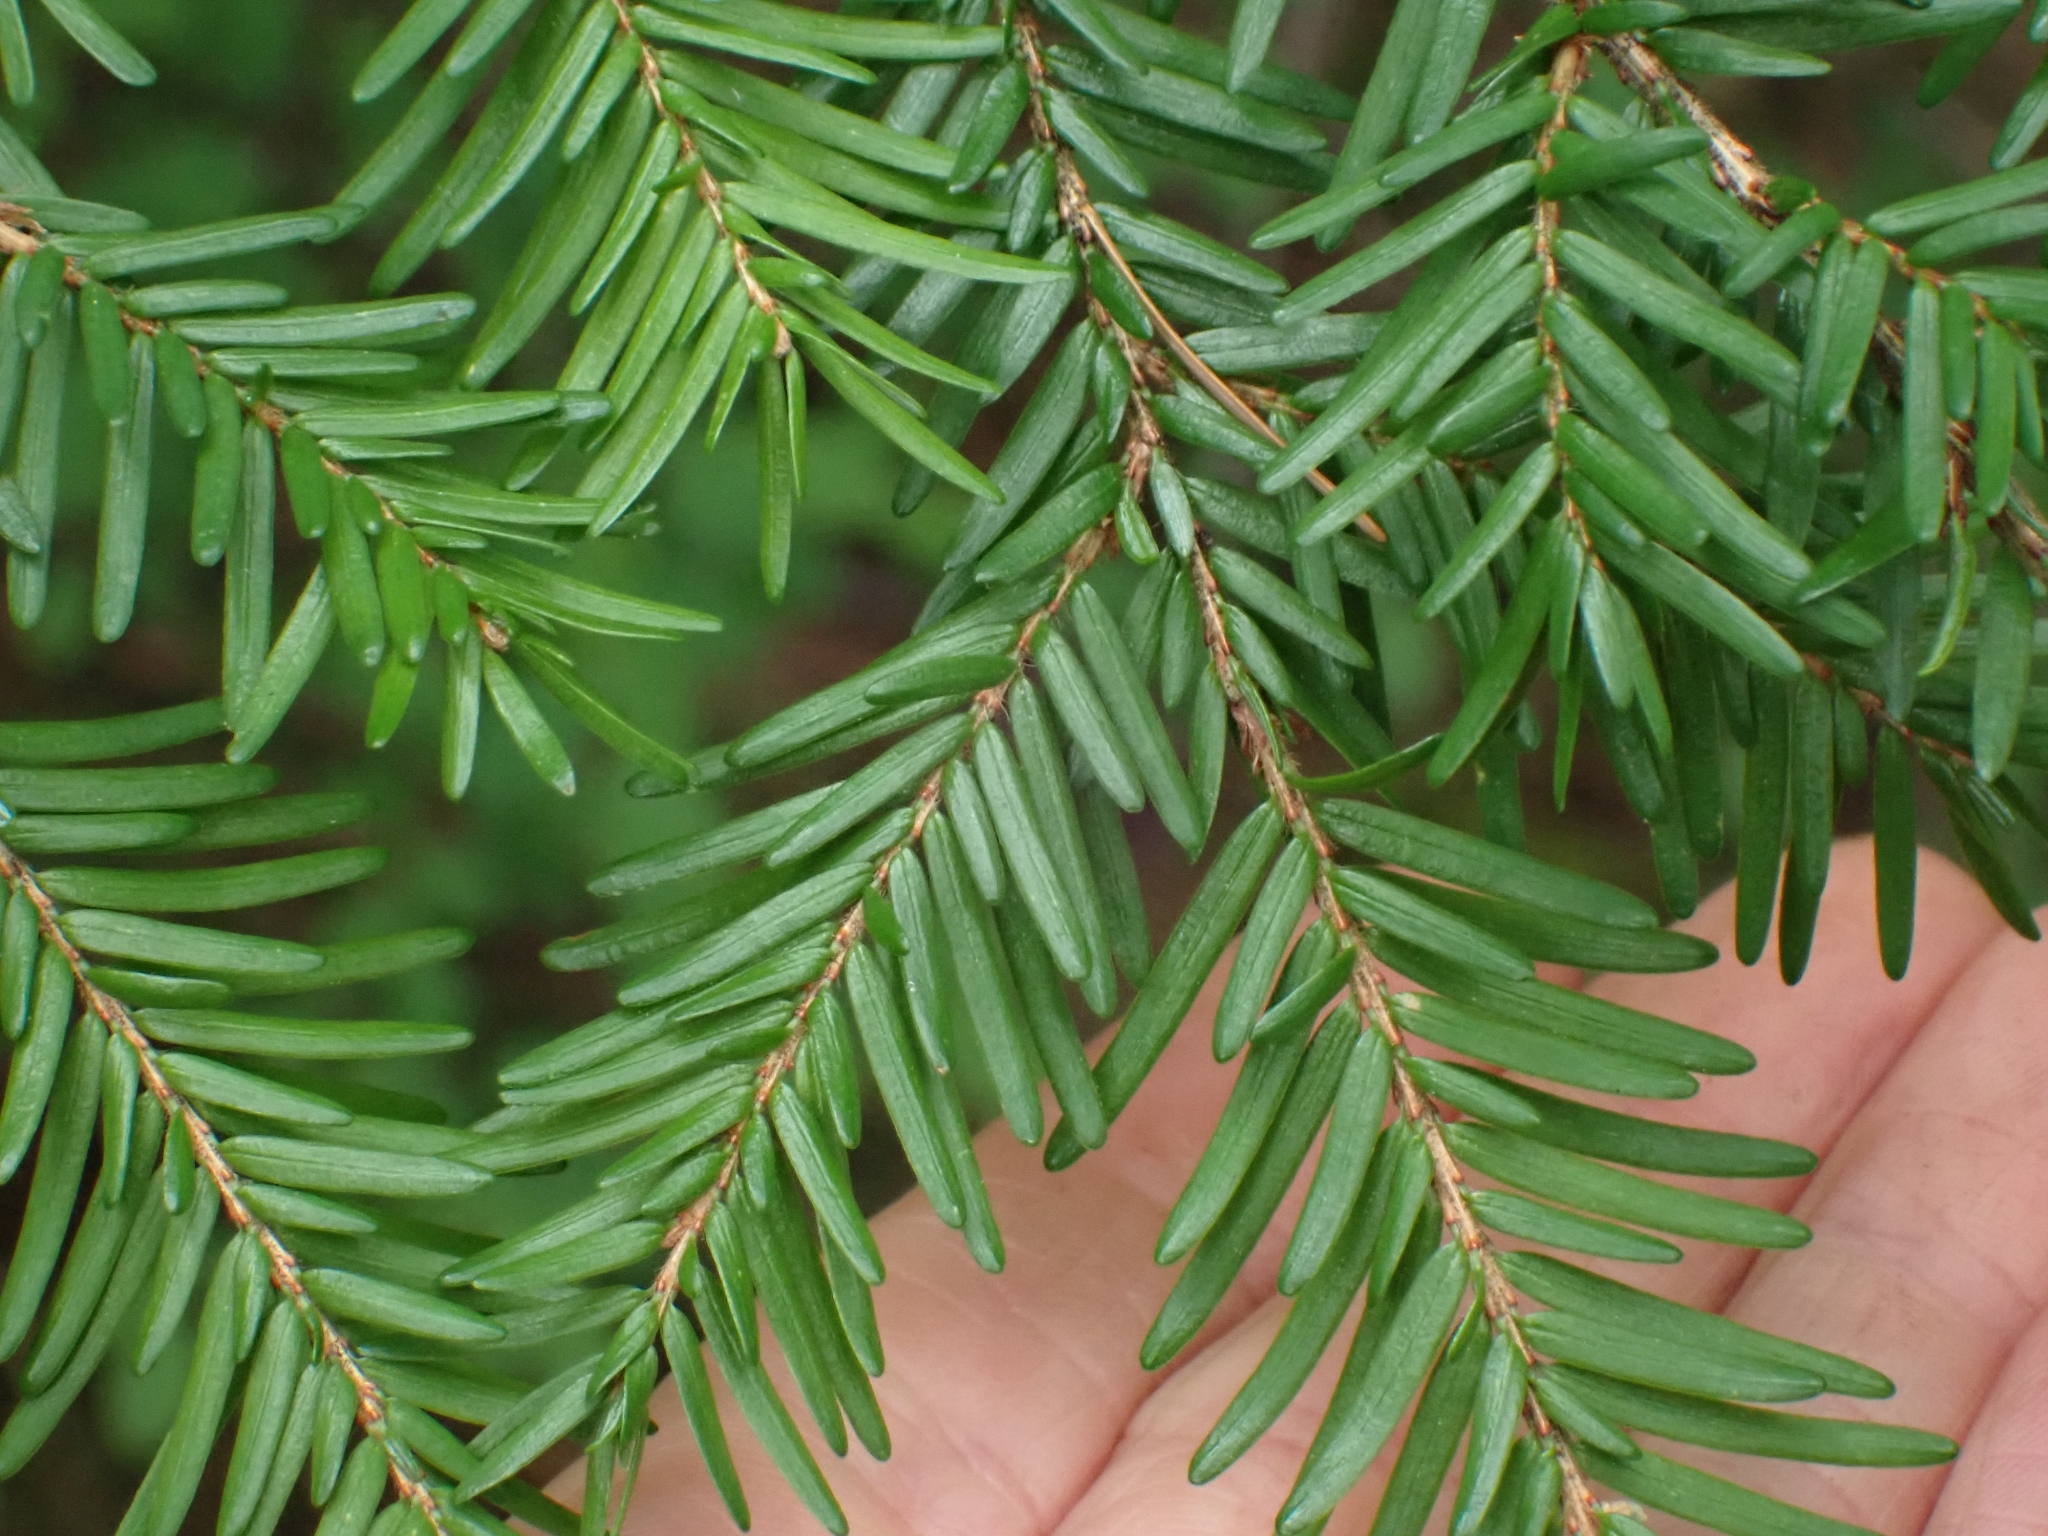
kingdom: Plantae
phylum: Tracheophyta
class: Pinopsida
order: Pinales
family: Pinaceae
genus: Tsuga
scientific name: Tsuga heterophylla
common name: Western hemlock
